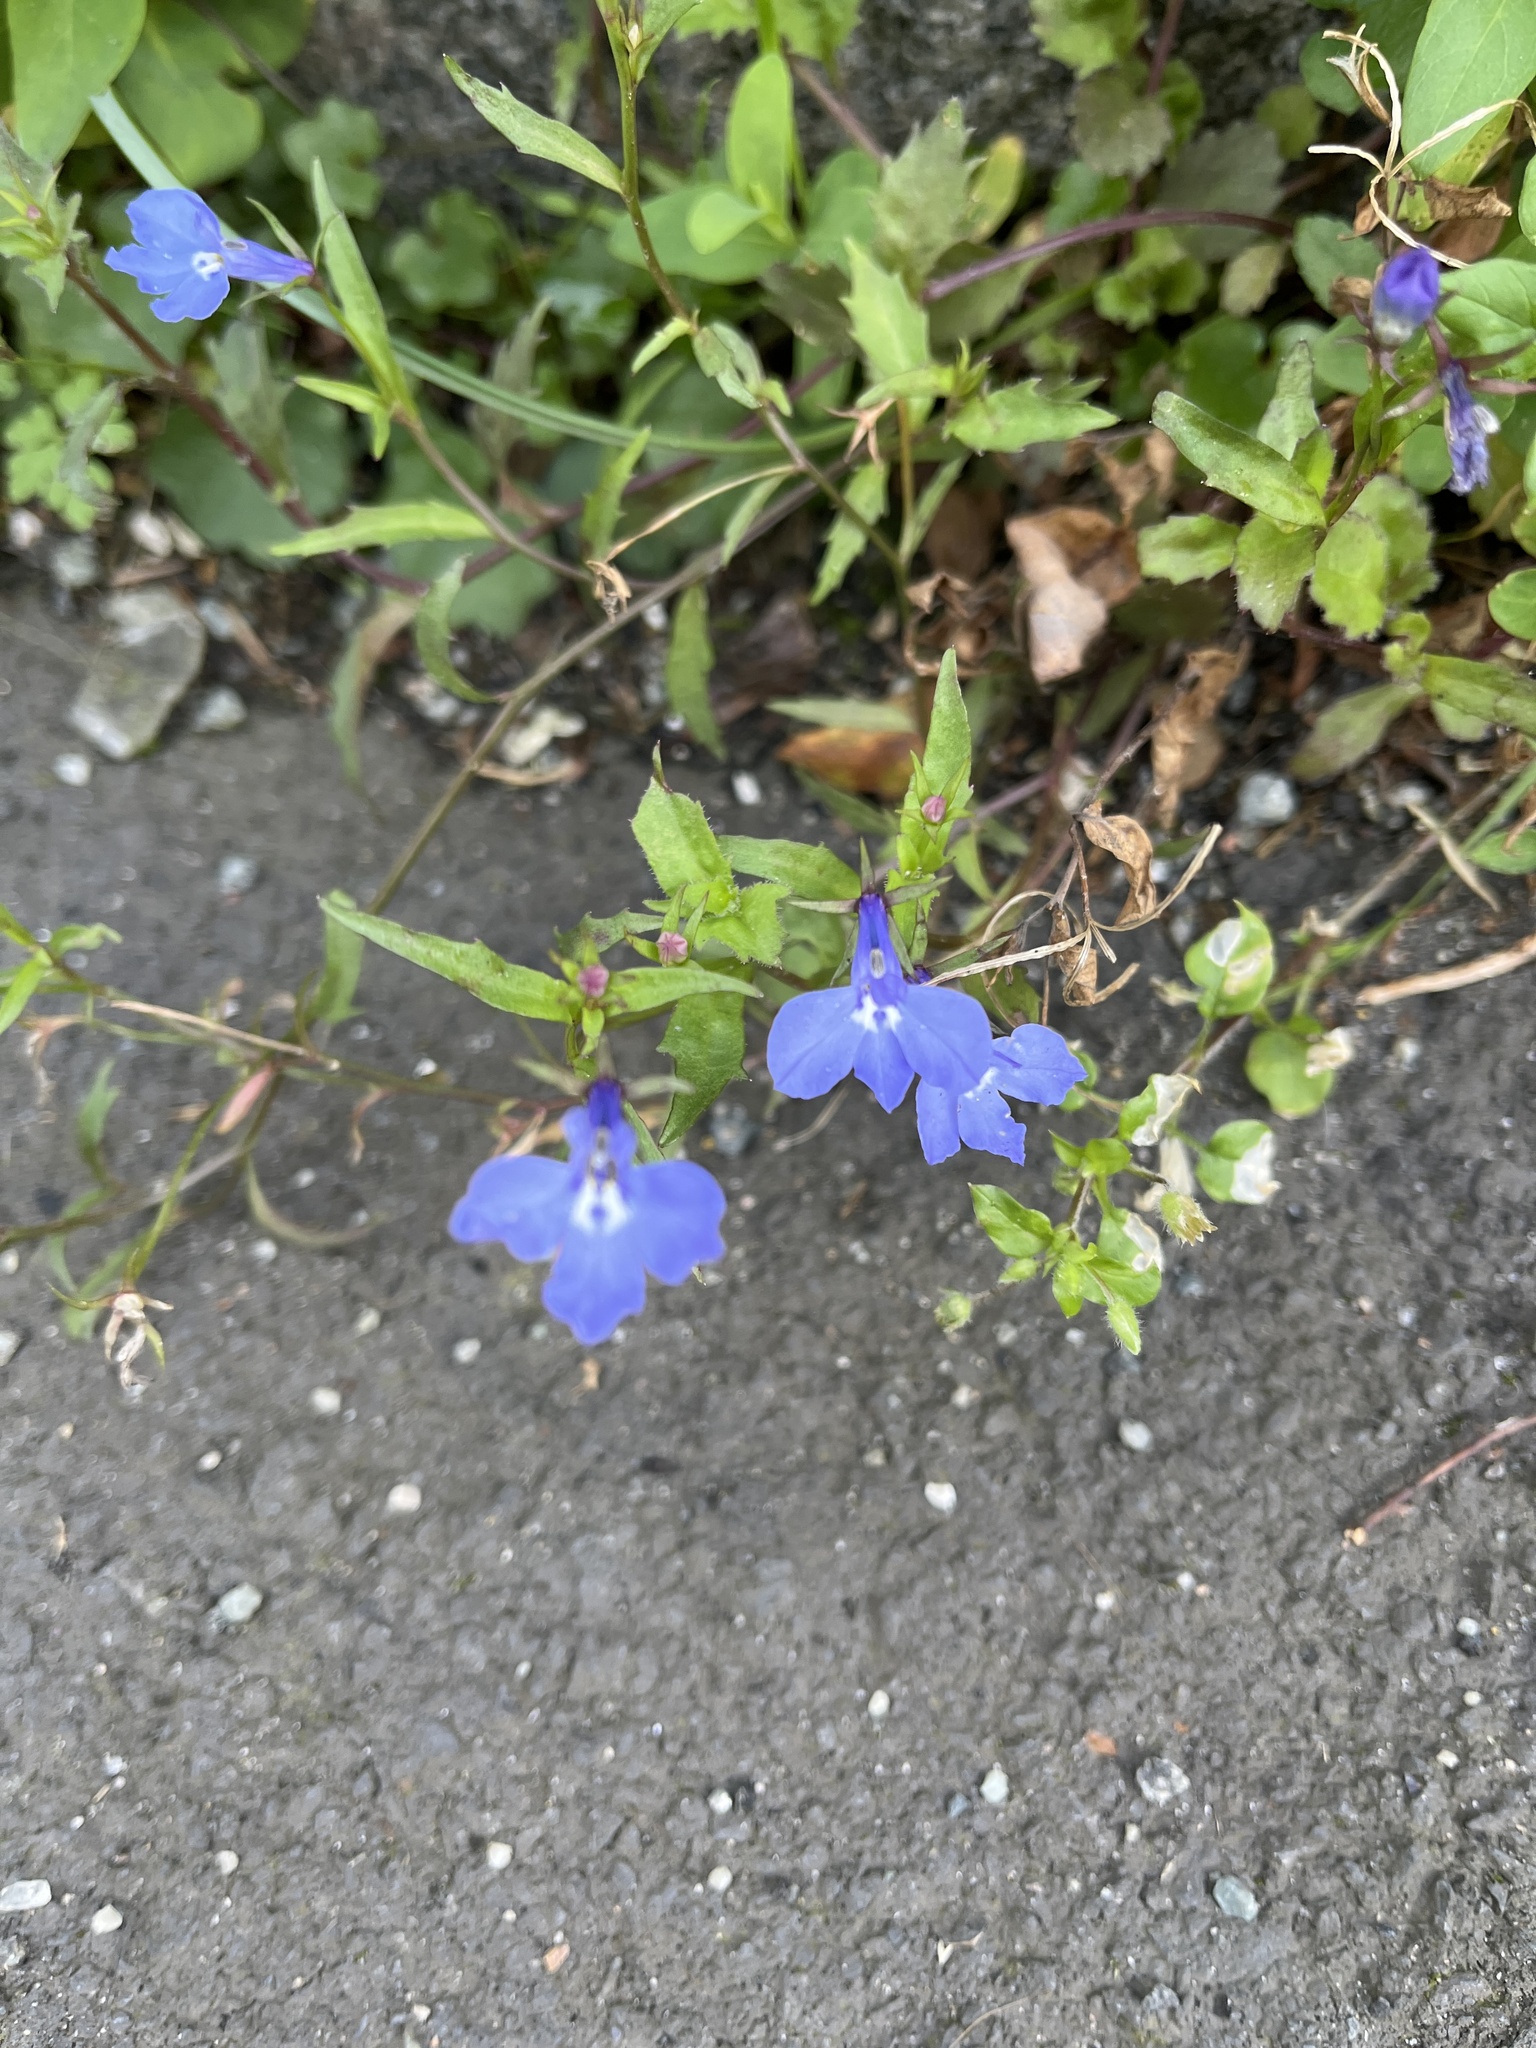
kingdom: Plantae
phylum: Tracheophyta
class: Magnoliopsida
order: Asterales
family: Campanulaceae
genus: Lobelia
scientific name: Lobelia erinus
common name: Edging lobelia
